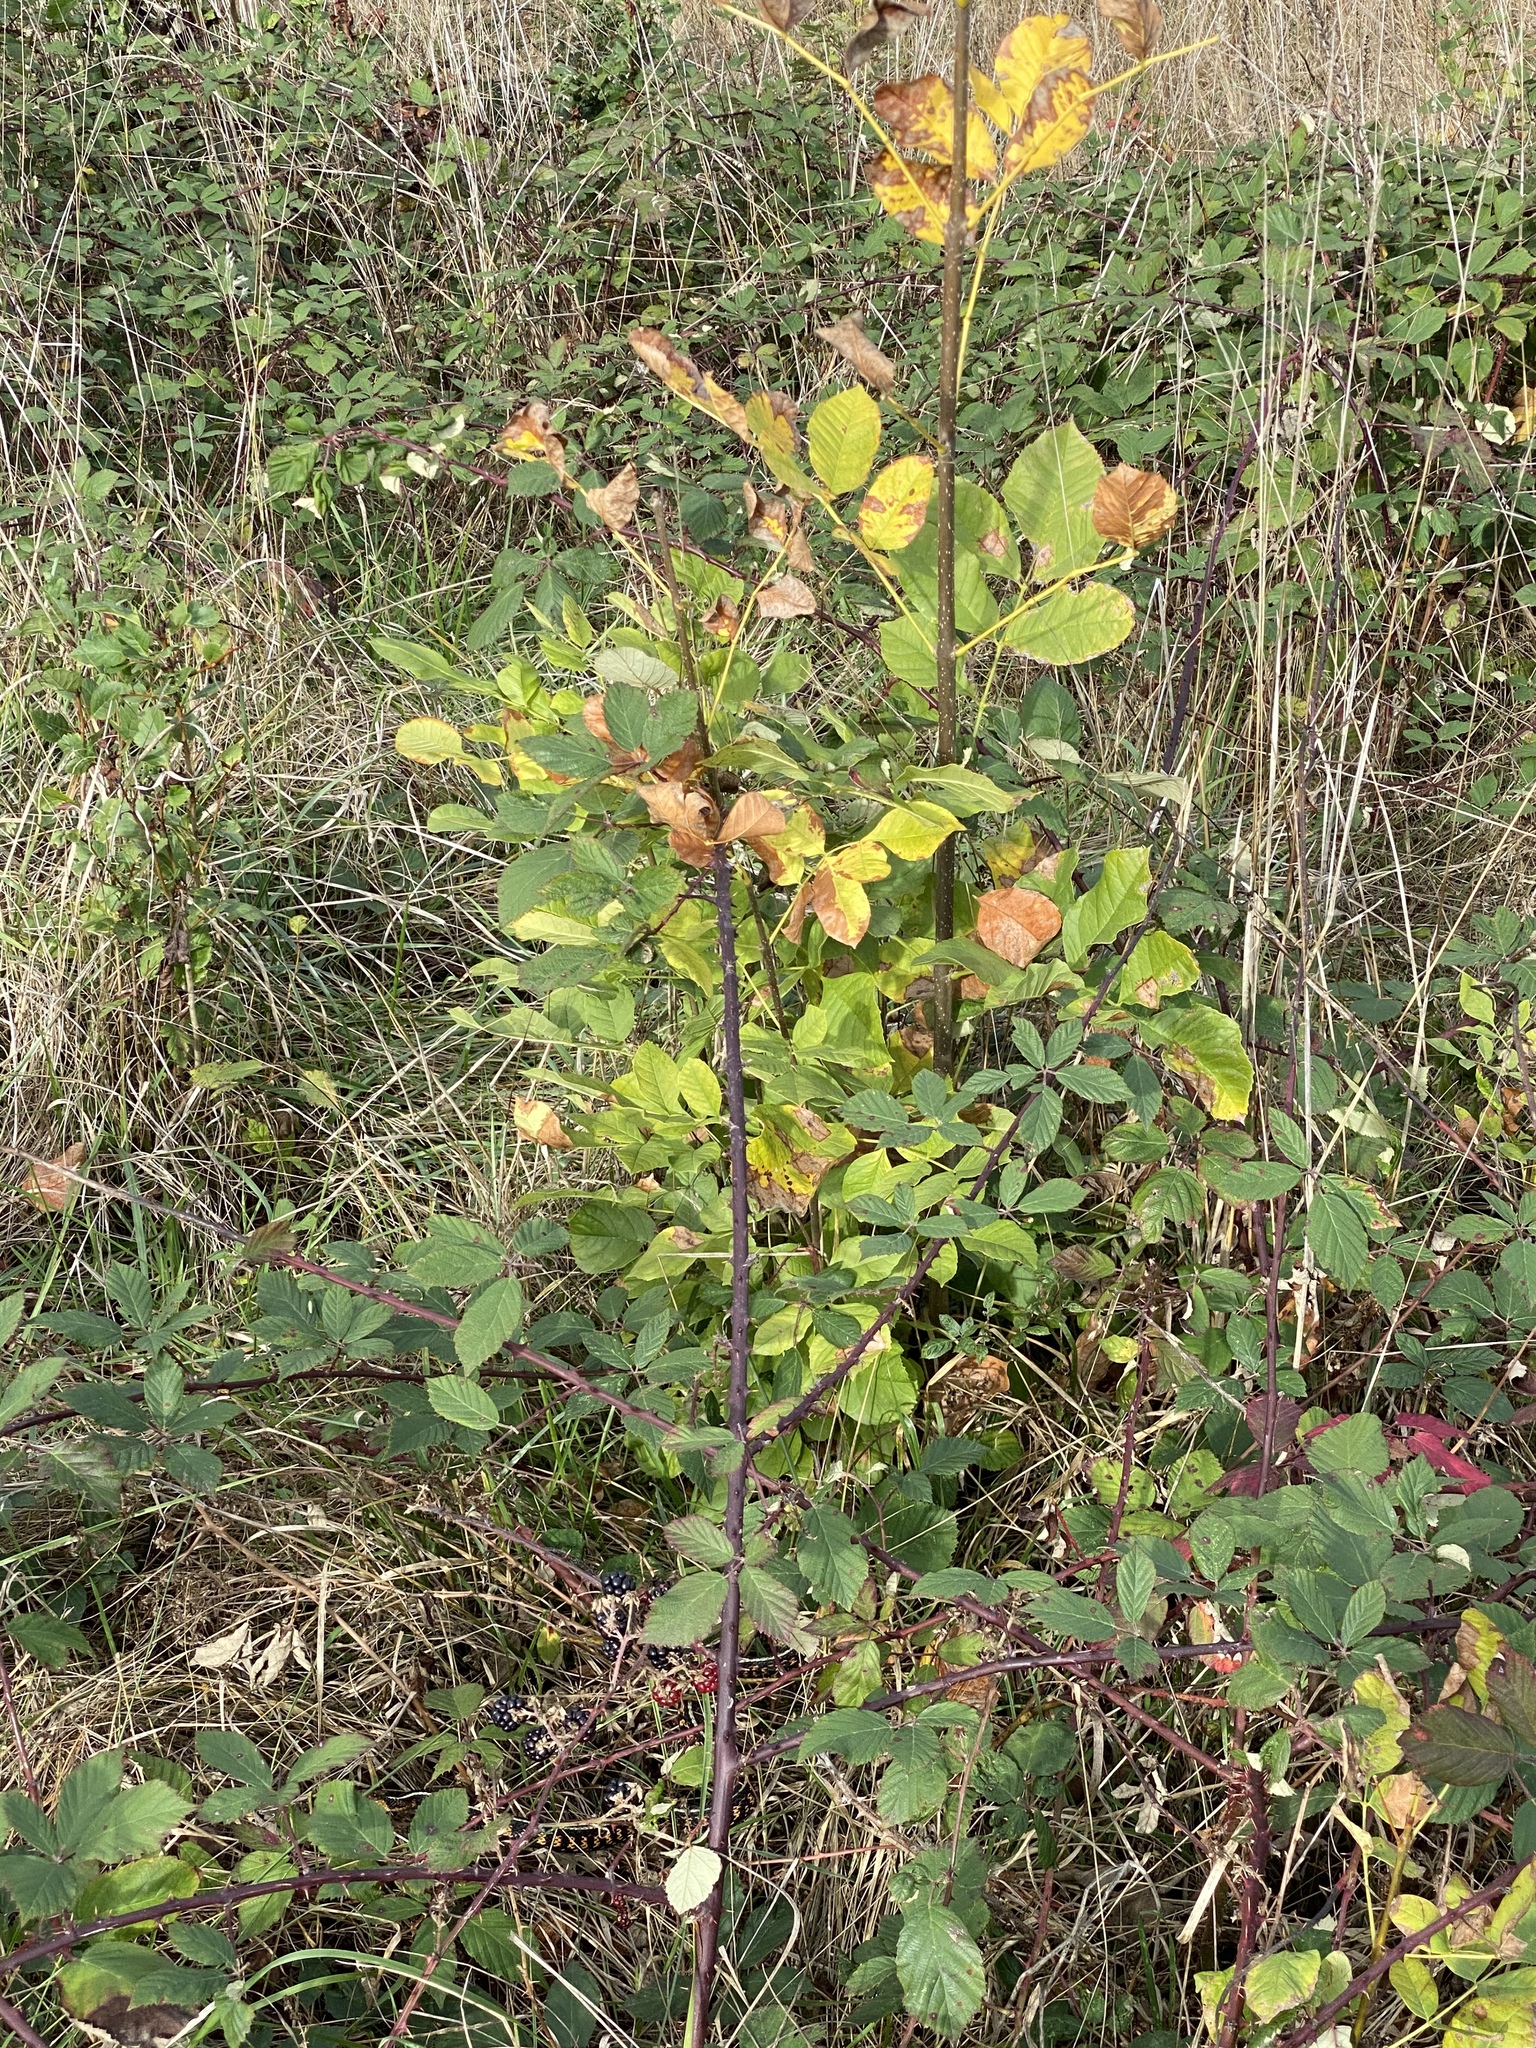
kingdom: Plantae
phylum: Tracheophyta
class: Magnoliopsida
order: Lamiales
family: Oleaceae
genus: Fraxinus
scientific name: Fraxinus latifolia
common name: Oregon ash
